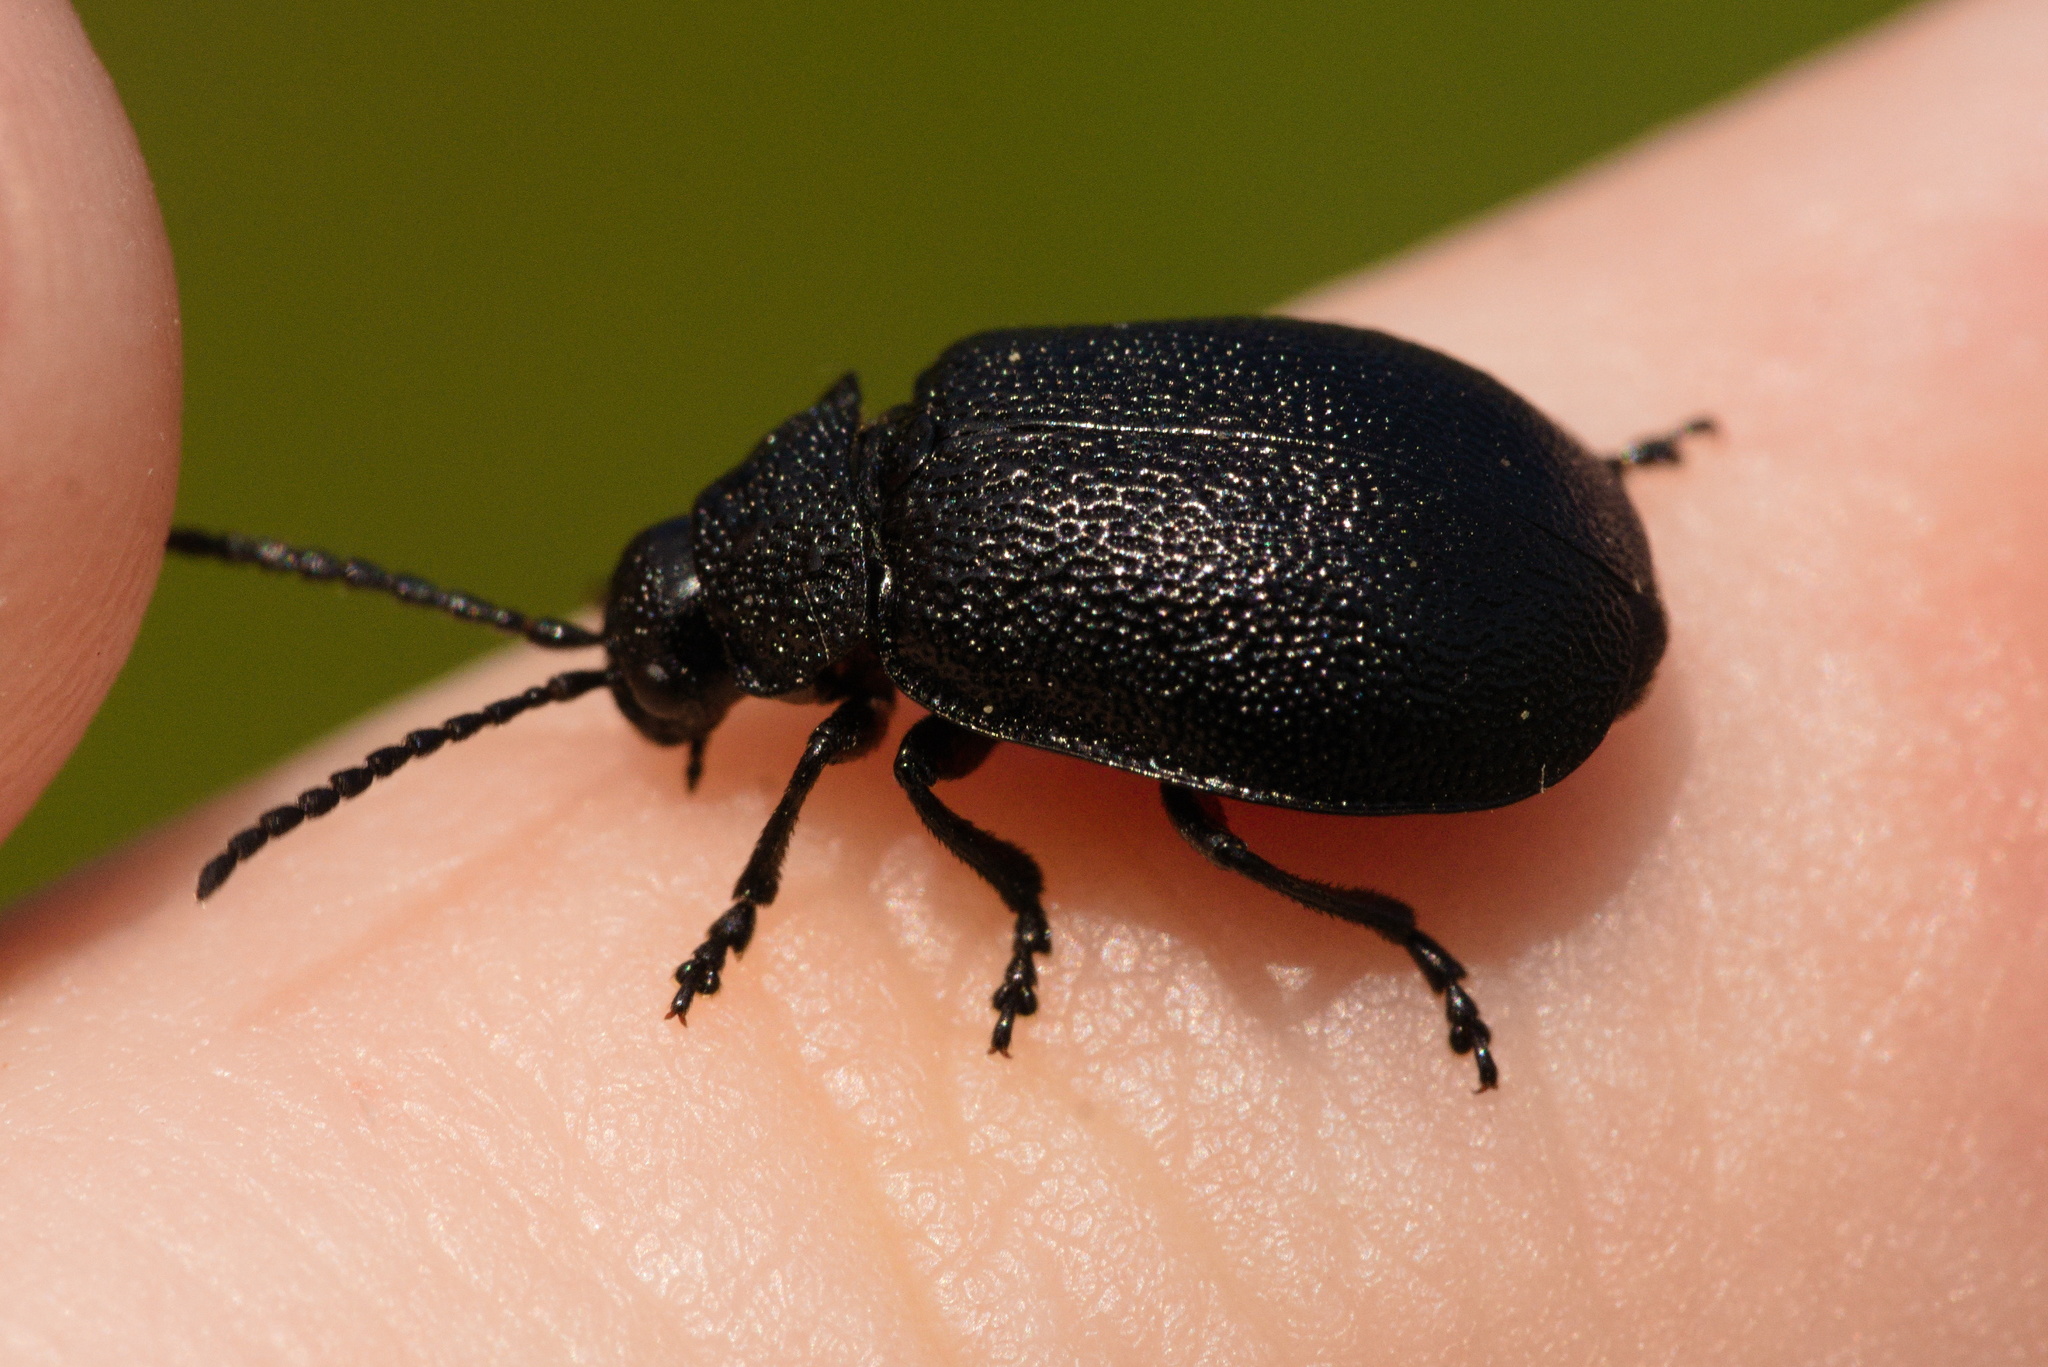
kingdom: Animalia
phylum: Arthropoda
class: Insecta
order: Coleoptera
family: Chrysomelidae
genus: Galeruca
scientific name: Galeruca tanaceti
